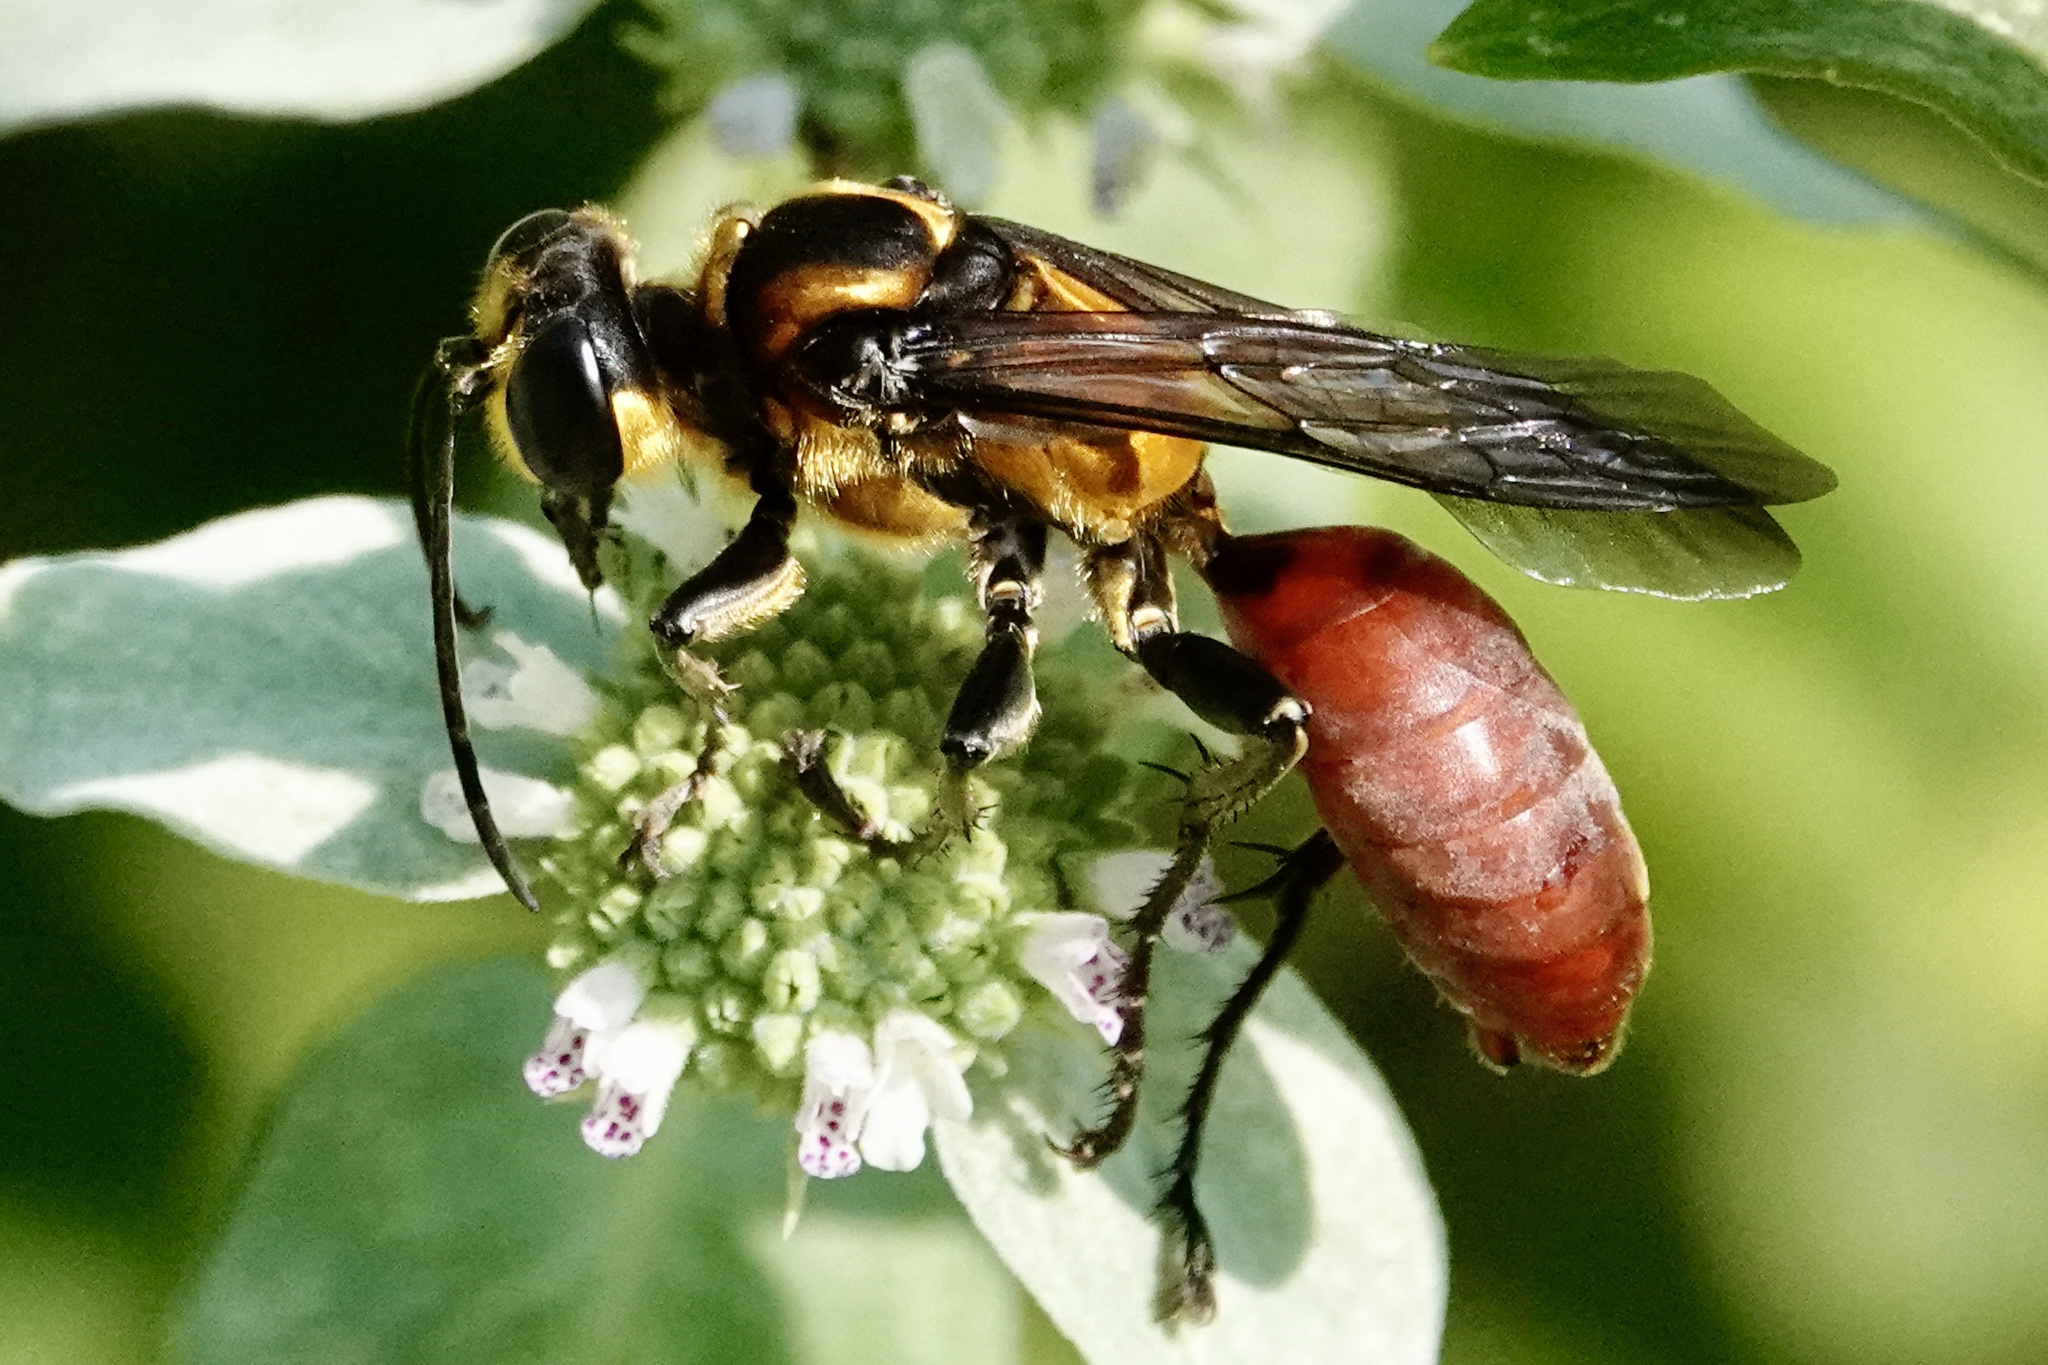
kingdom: Animalia
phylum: Arthropoda
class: Insecta
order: Hymenoptera
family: Sphecidae
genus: Sphex
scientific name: Sphex habenus
